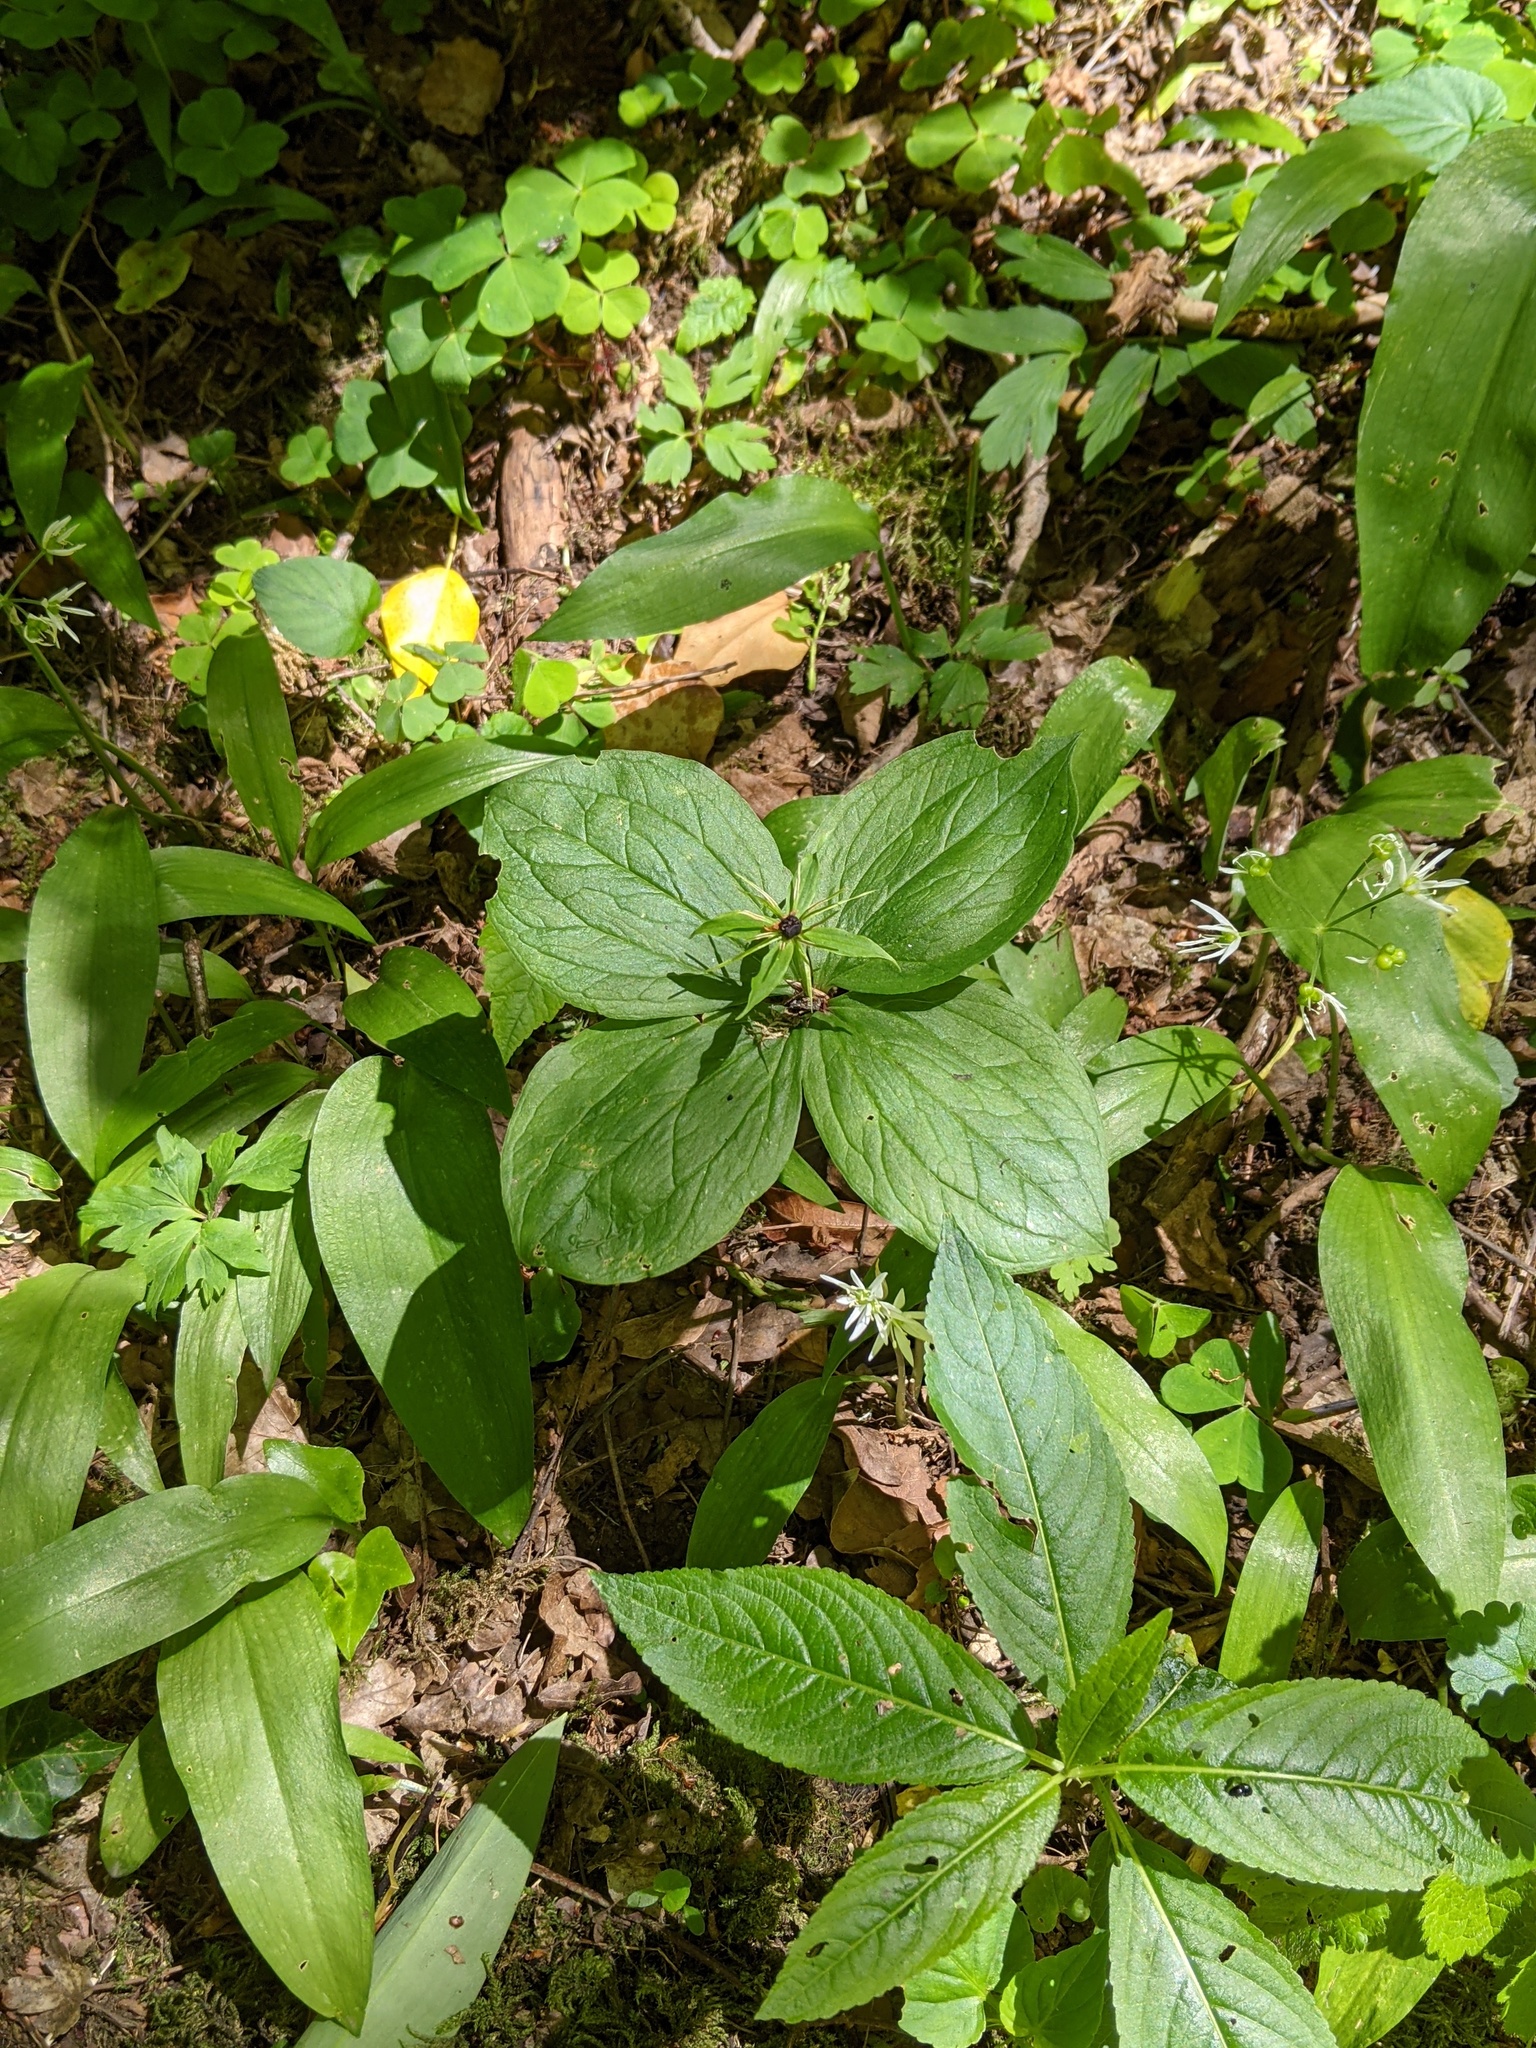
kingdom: Plantae
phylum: Tracheophyta
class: Liliopsida
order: Liliales
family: Melanthiaceae
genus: Paris
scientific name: Paris quadrifolia
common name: Herb-paris
